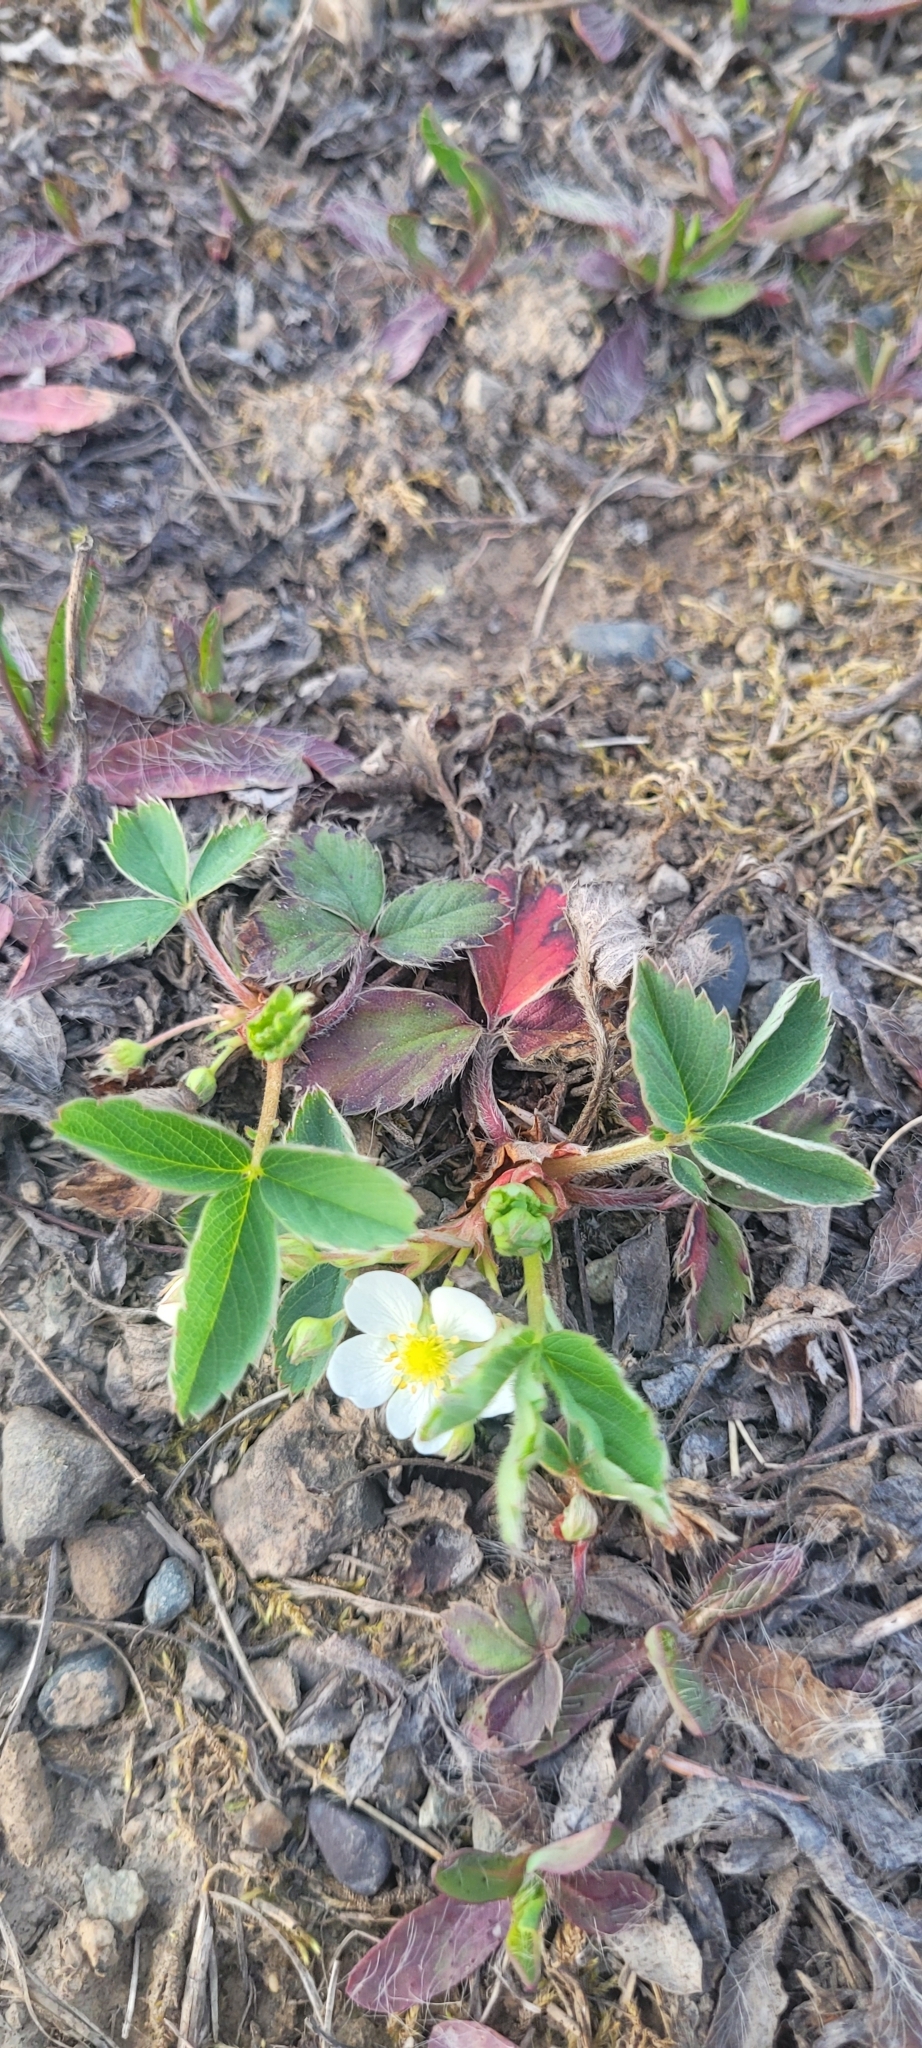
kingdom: Plantae
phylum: Tracheophyta
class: Magnoliopsida
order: Rosales
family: Rosaceae
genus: Fragaria
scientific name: Fragaria virginiana
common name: Thickleaved wild strawberry
